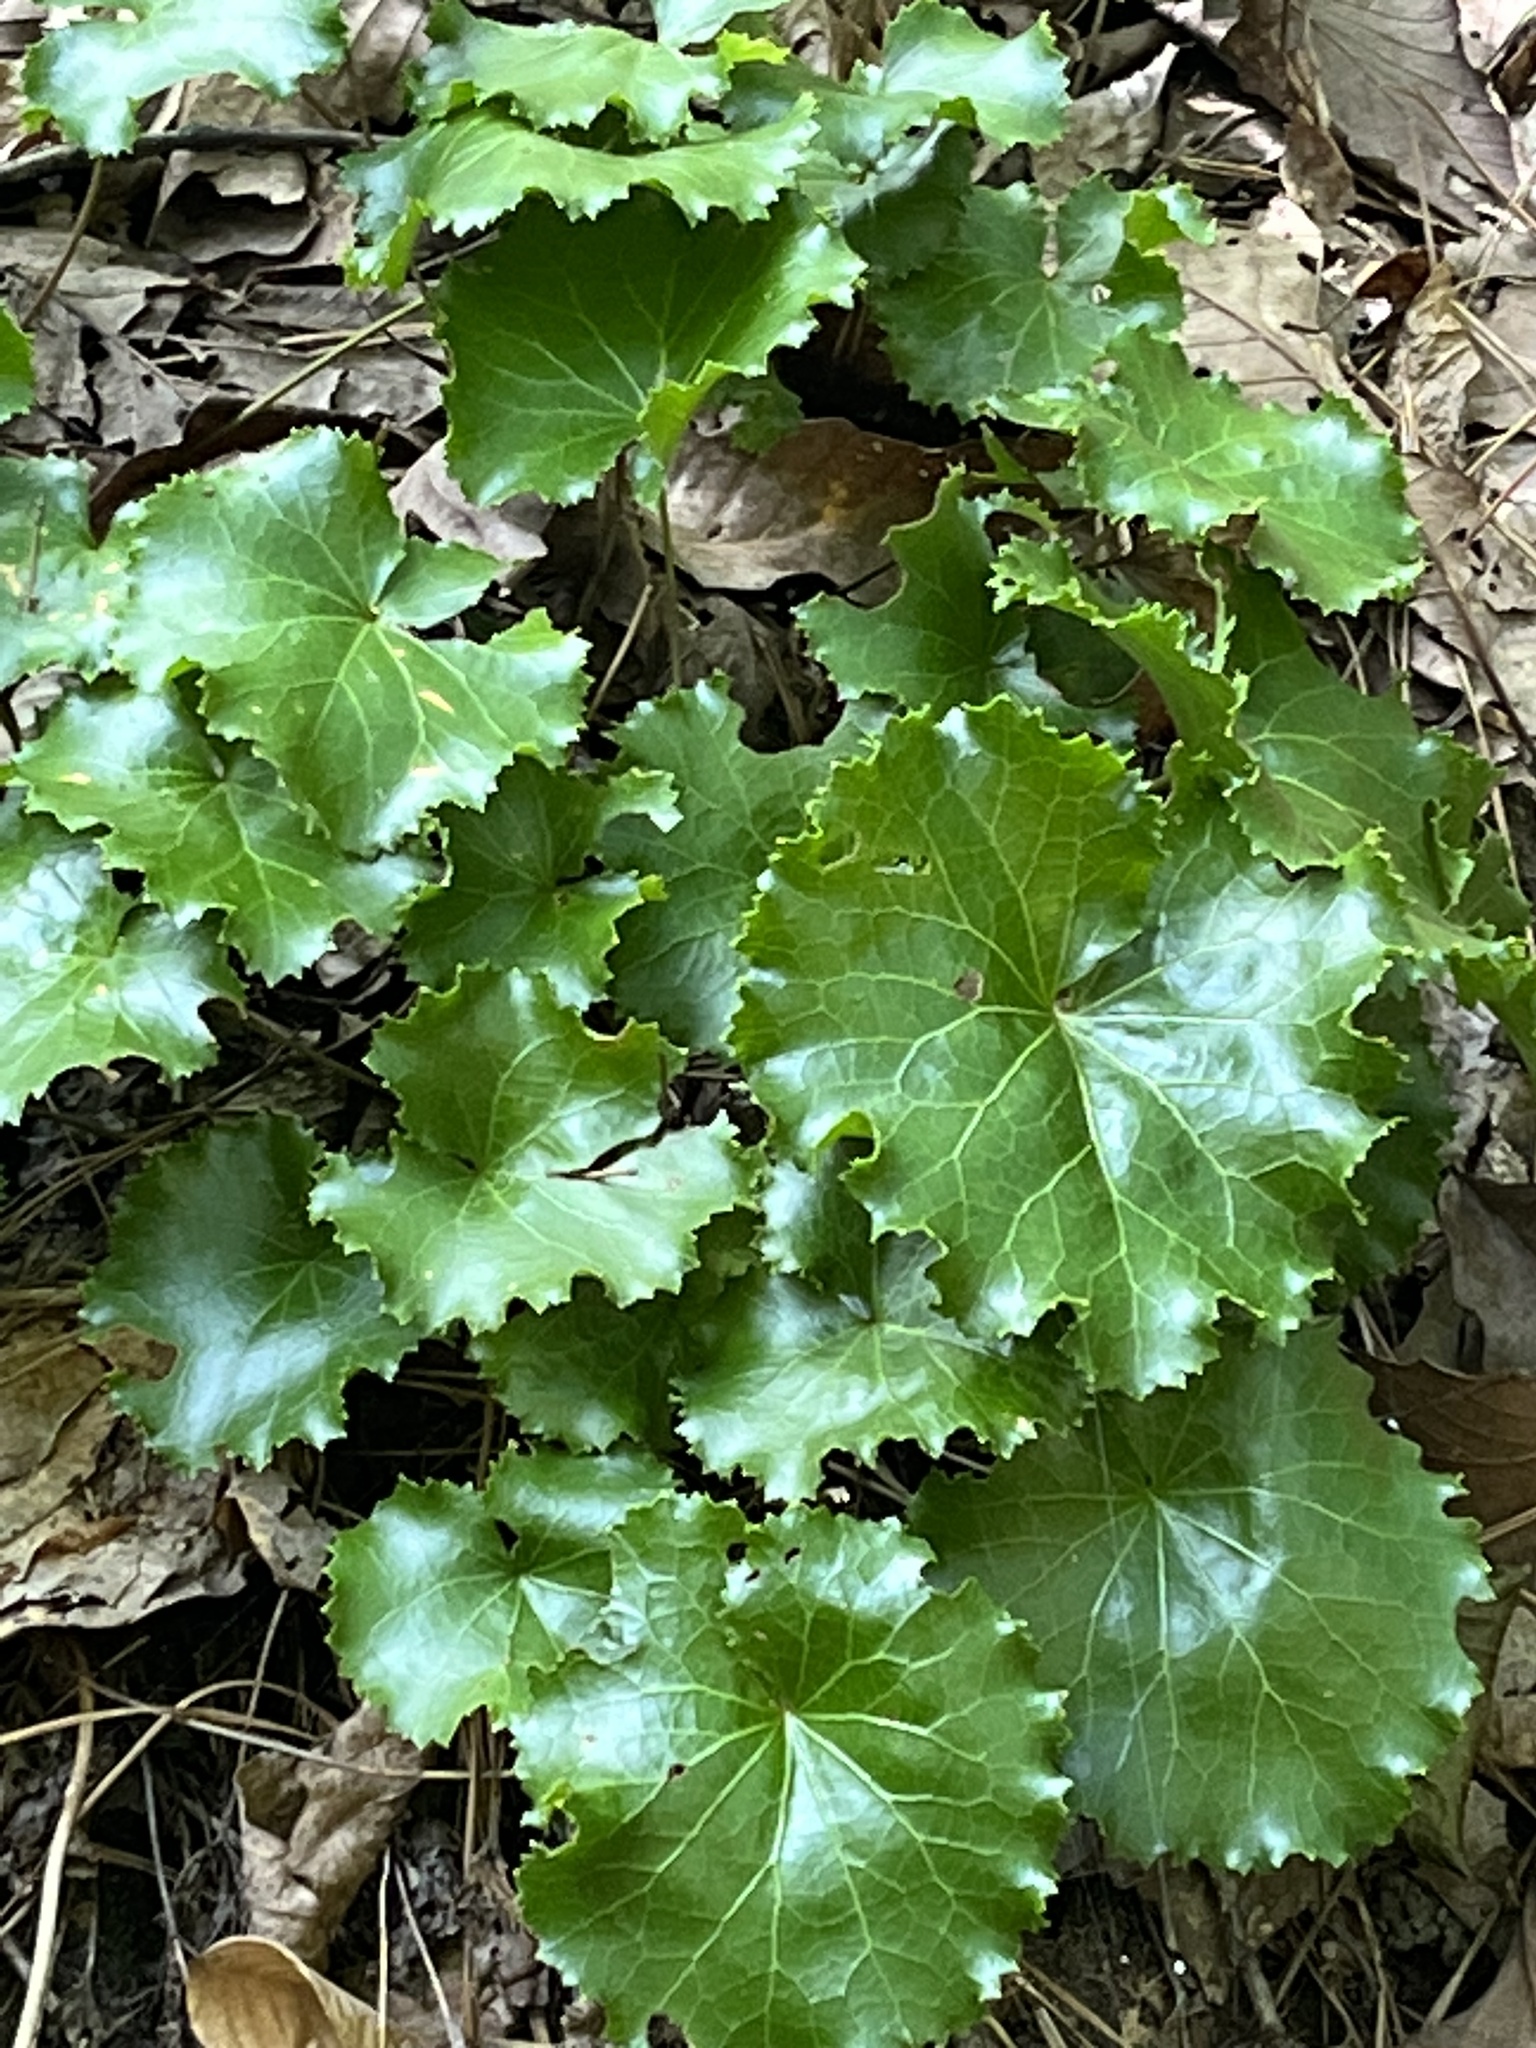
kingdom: Plantae
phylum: Tracheophyta
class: Magnoliopsida
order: Ericales
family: Diapensiaceae
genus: Galax
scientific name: Galax urceolata
